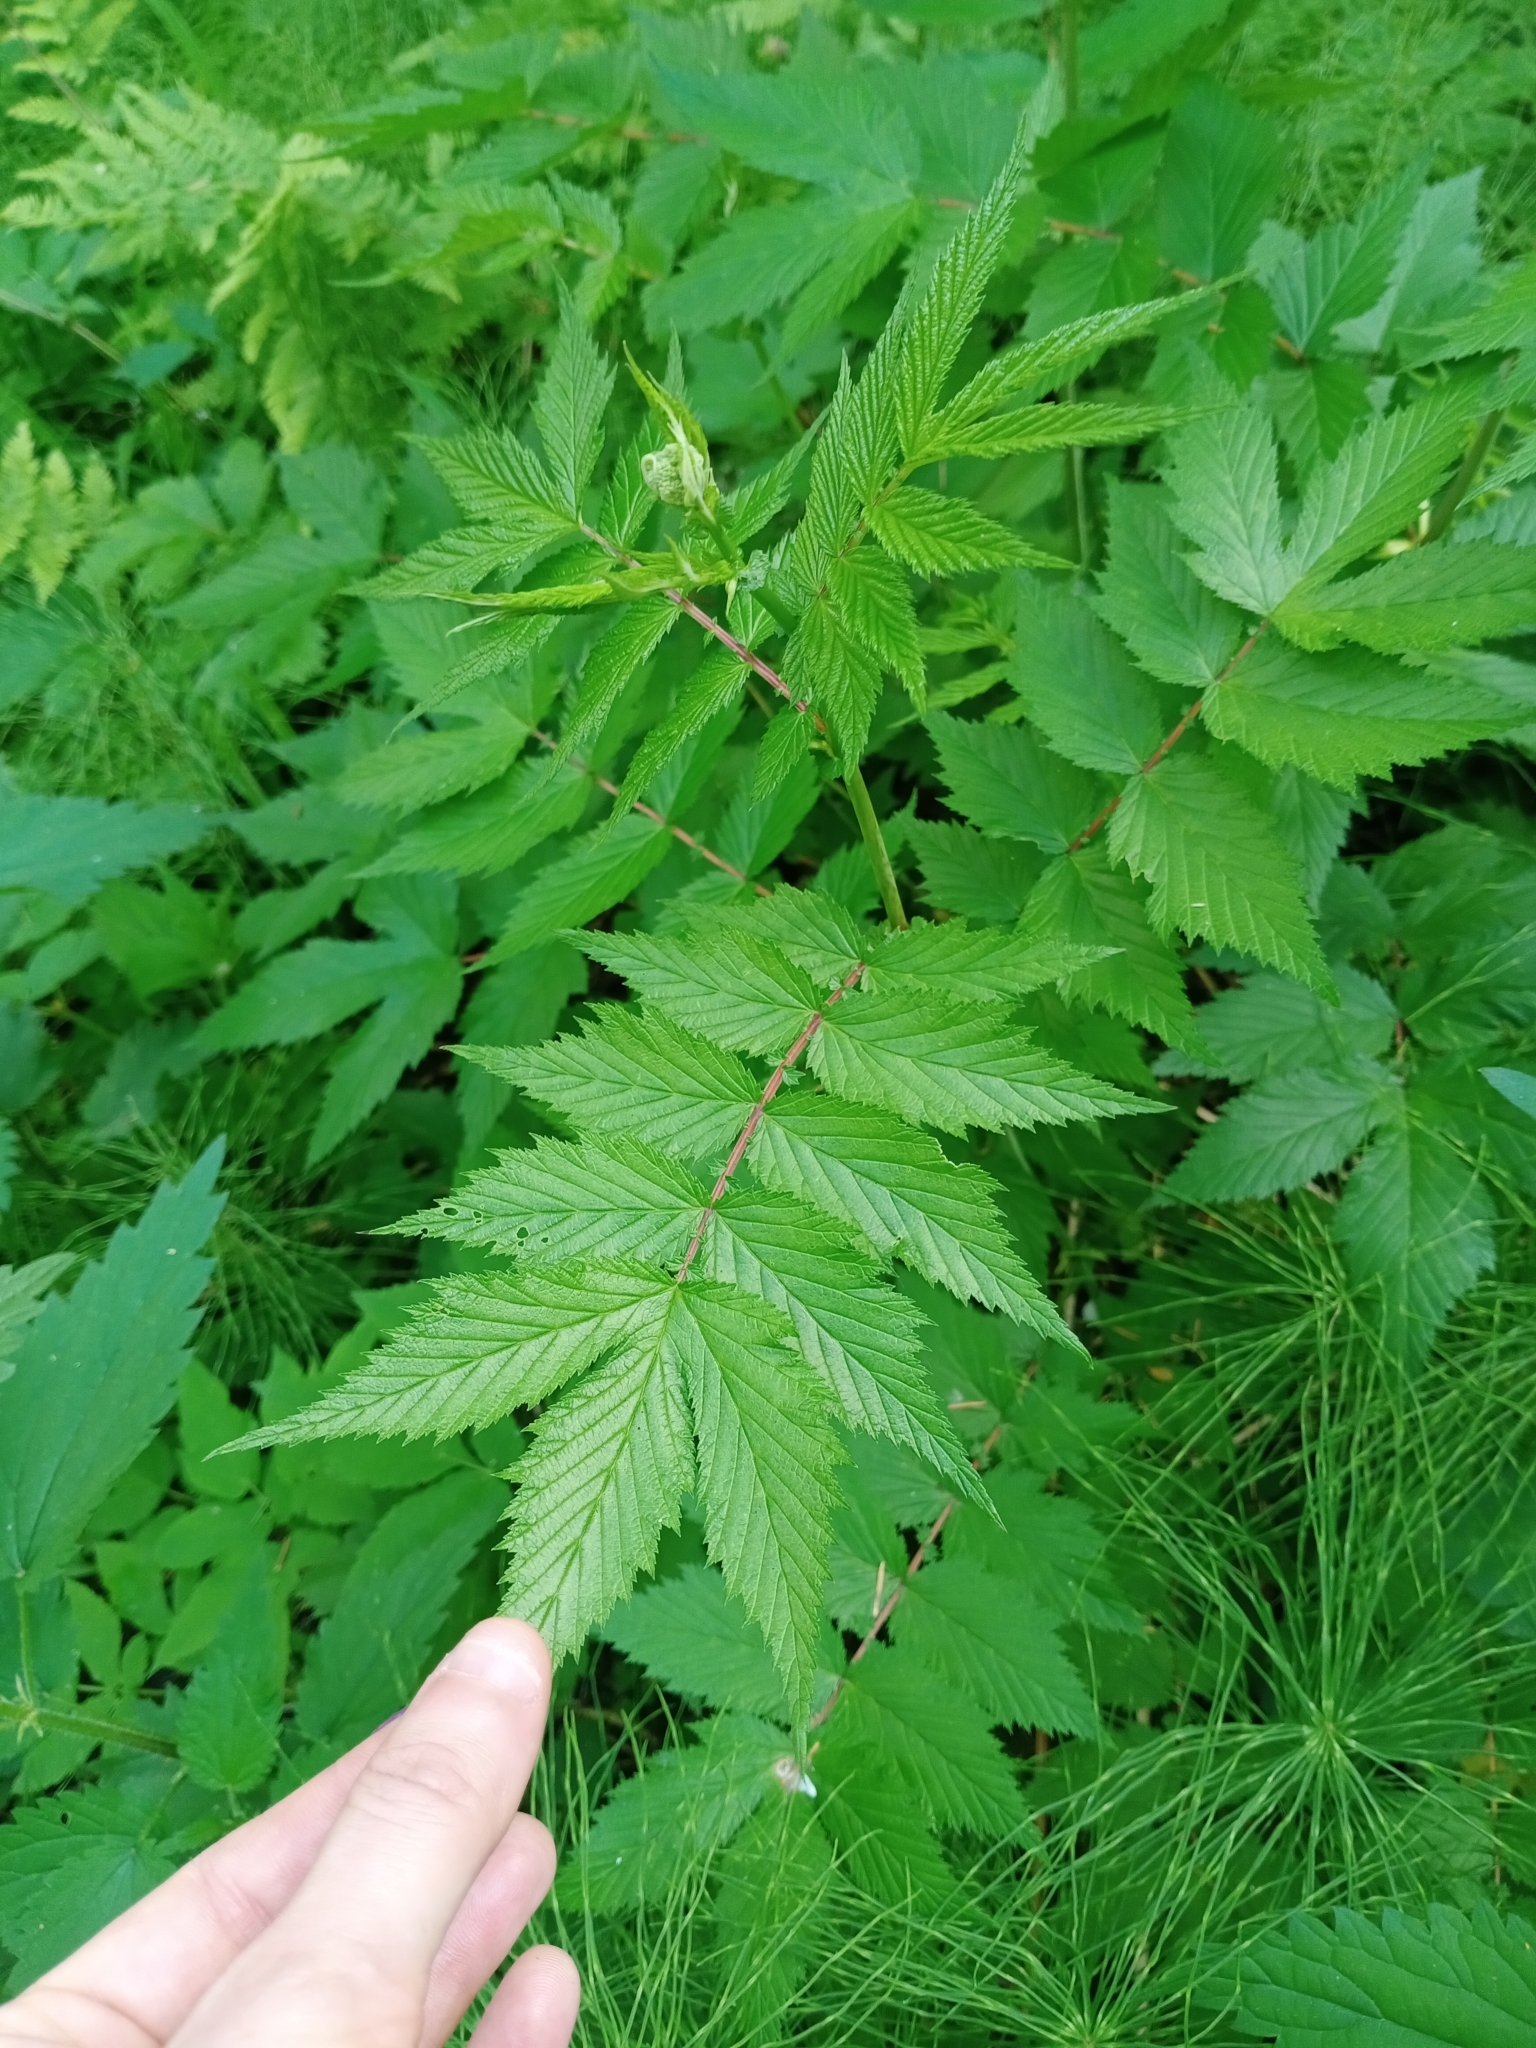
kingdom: Plantae
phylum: Tracheophyta
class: Magnoliopsida
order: Rosales
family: Rosaceae
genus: Filipendula
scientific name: Filipendula ulmaria
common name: Meadowsweet
